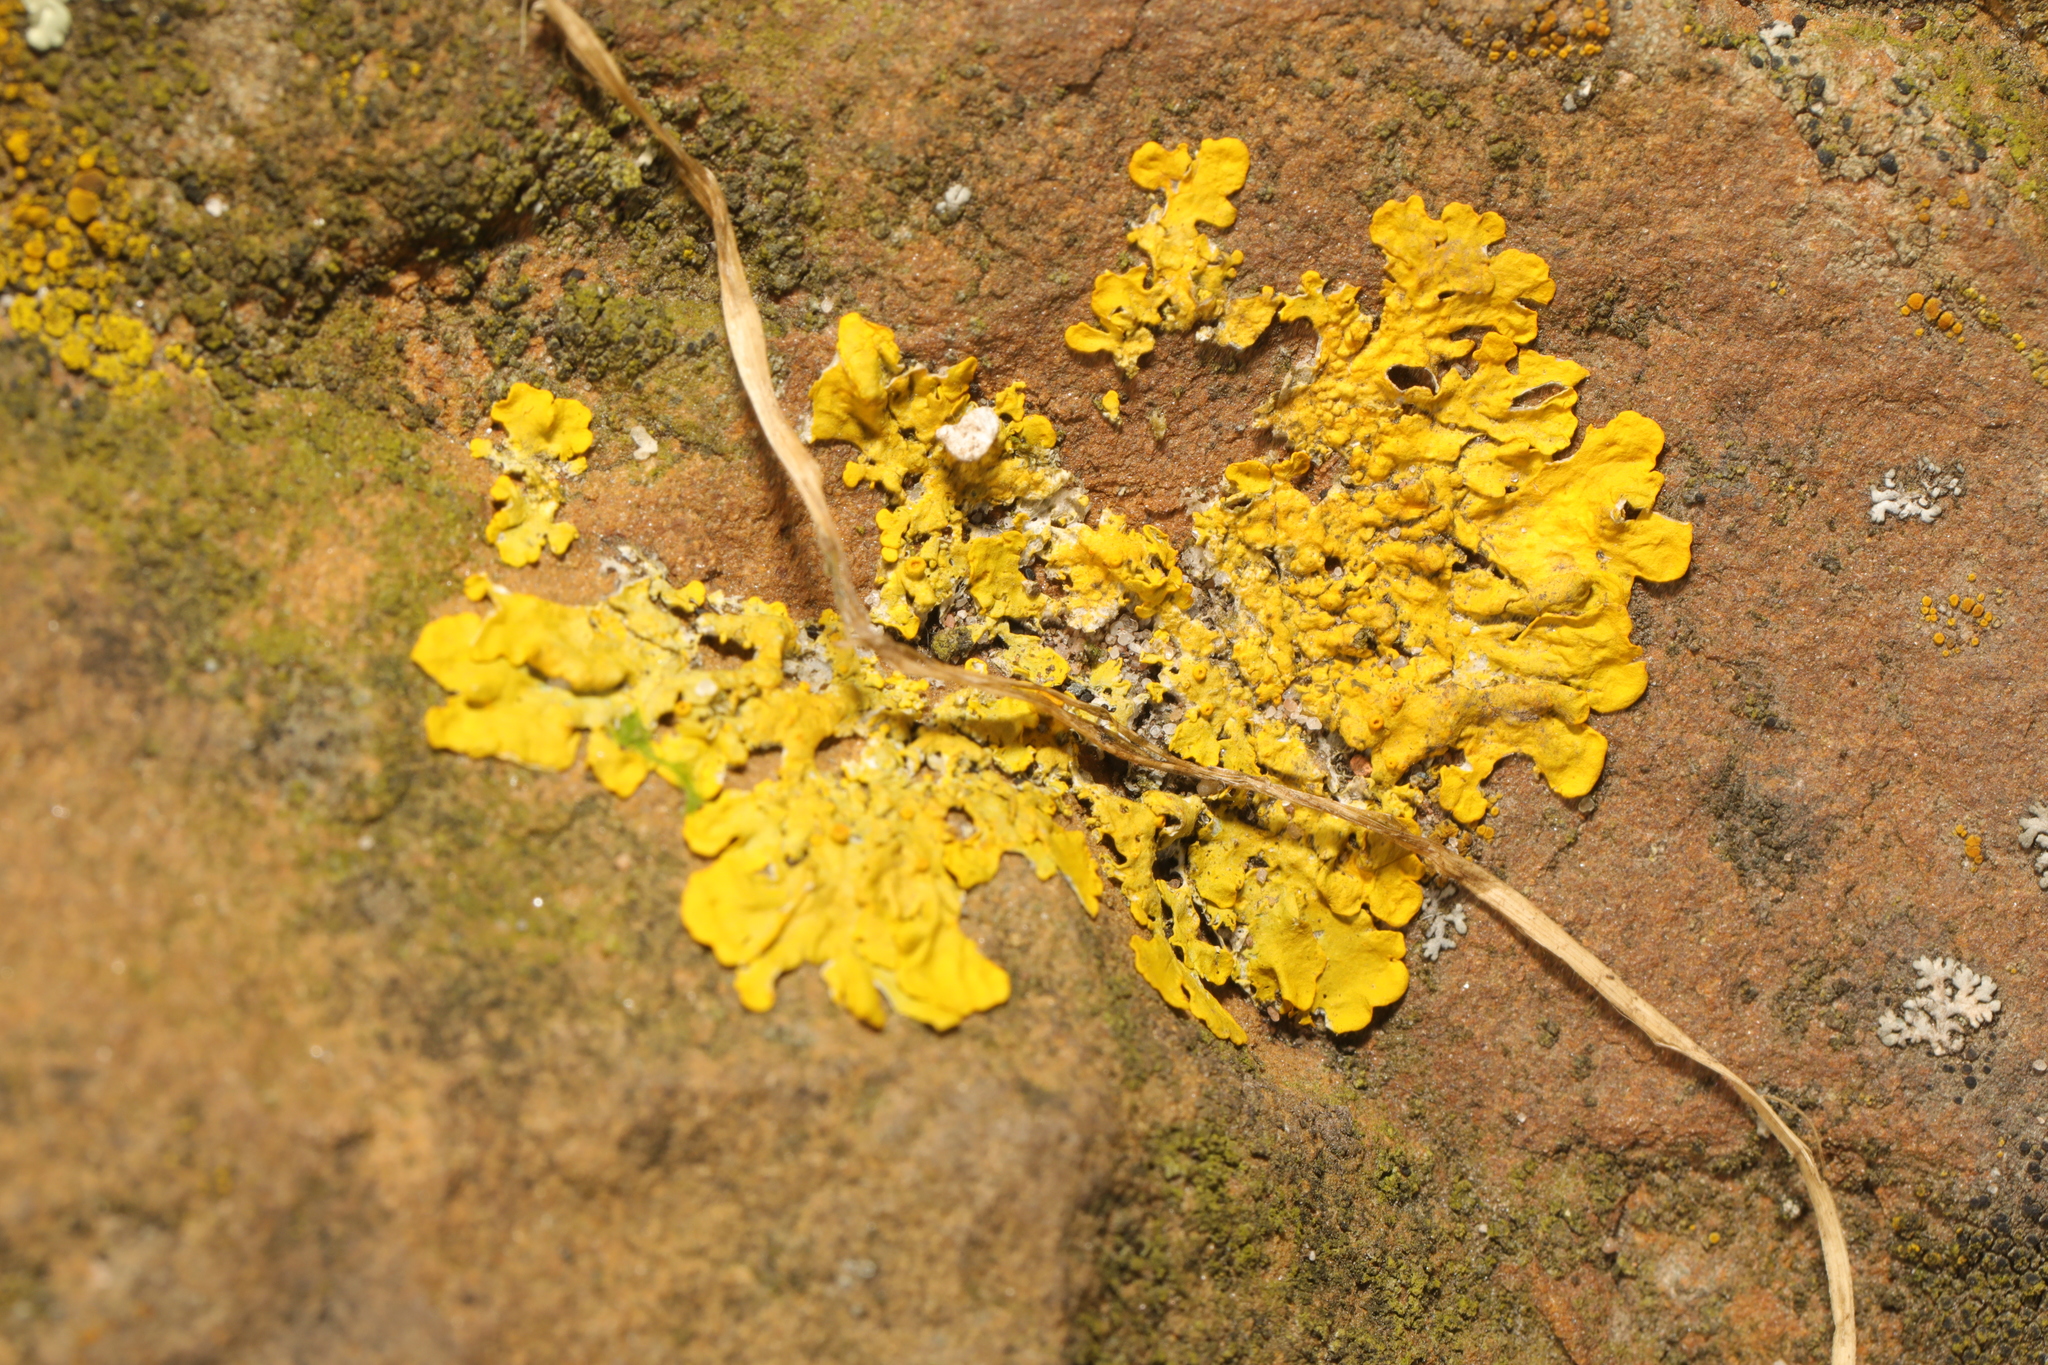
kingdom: Fungi
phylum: Ascomycota
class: Lecanoromycetes
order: Teloschistales
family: Teloschistaceae
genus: Xanthoria
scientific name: Xanthoria parietina
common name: Common orange lichen
